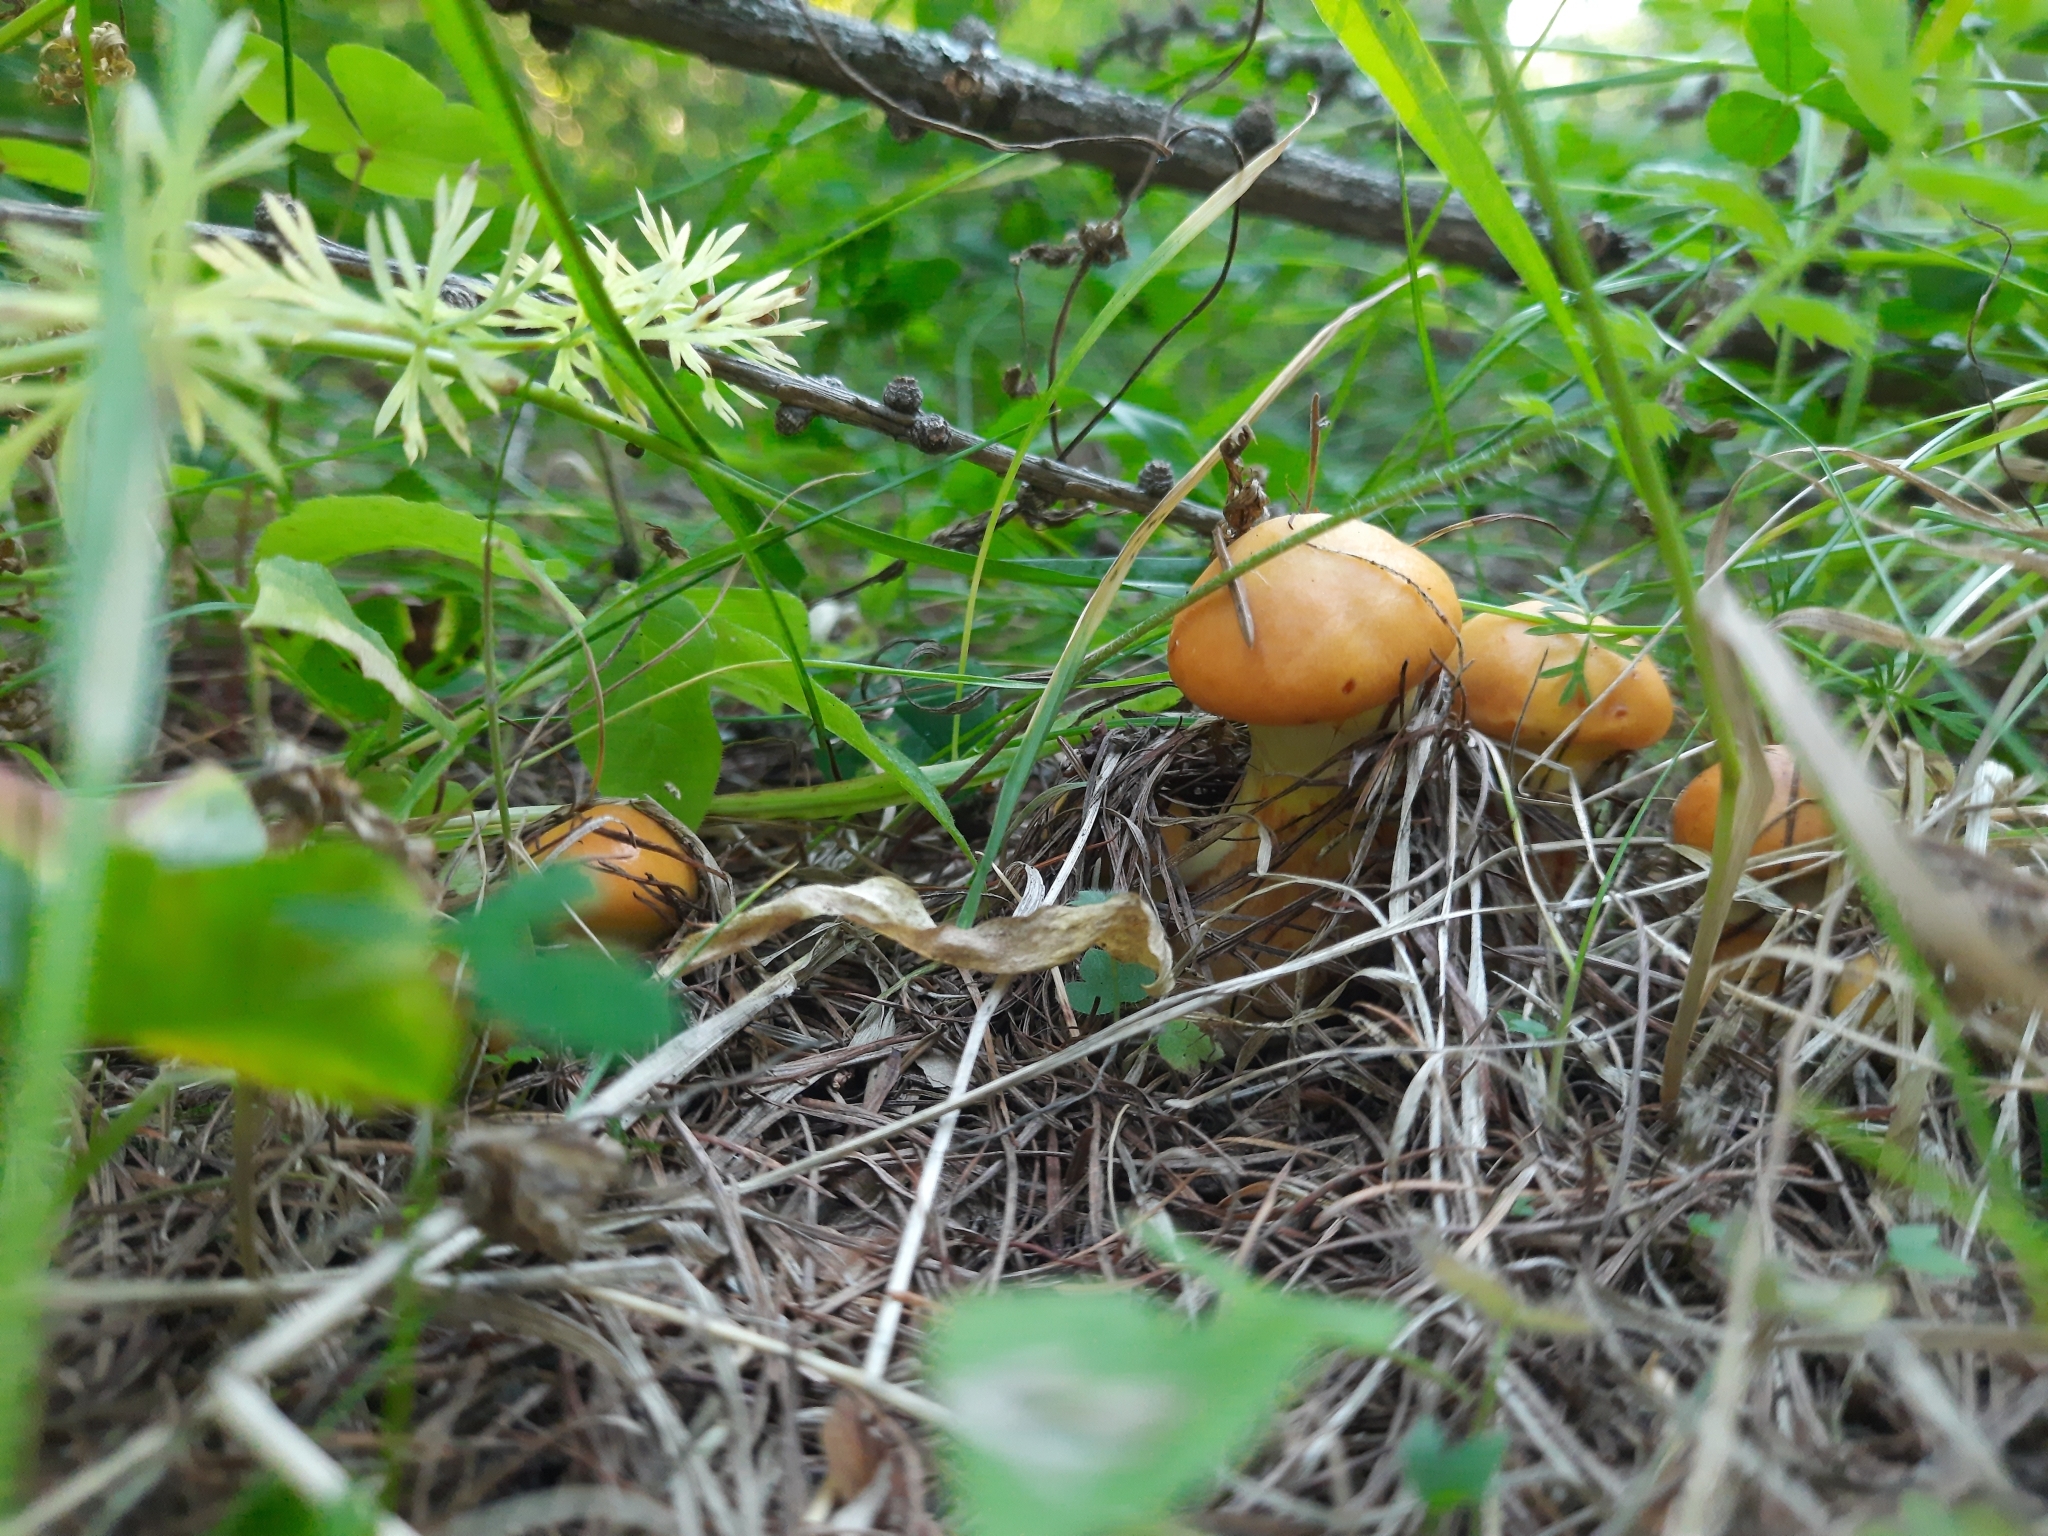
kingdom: Fungi
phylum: Basidiomycota
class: Agaricomycetes
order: Boletales
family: Suillaceae
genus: Suillus
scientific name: Suillus grevillei
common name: Larch bolete
